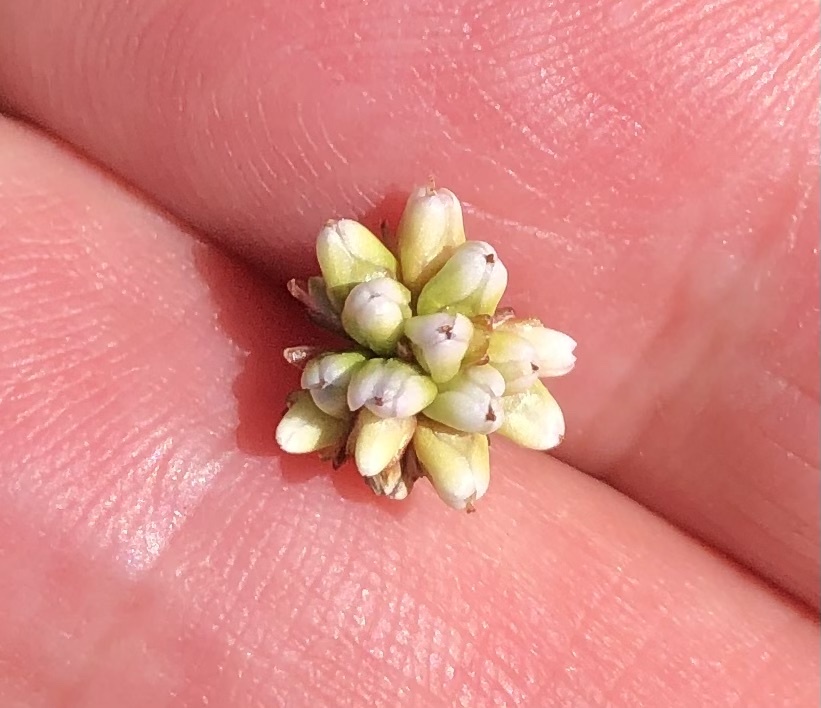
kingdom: Plantae
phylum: Tracheophyta
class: Magnoliopsida
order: Caryophyllales
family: Polygonaceae
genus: Persicaria
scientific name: Persicaria sagittata
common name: American tearthumb
